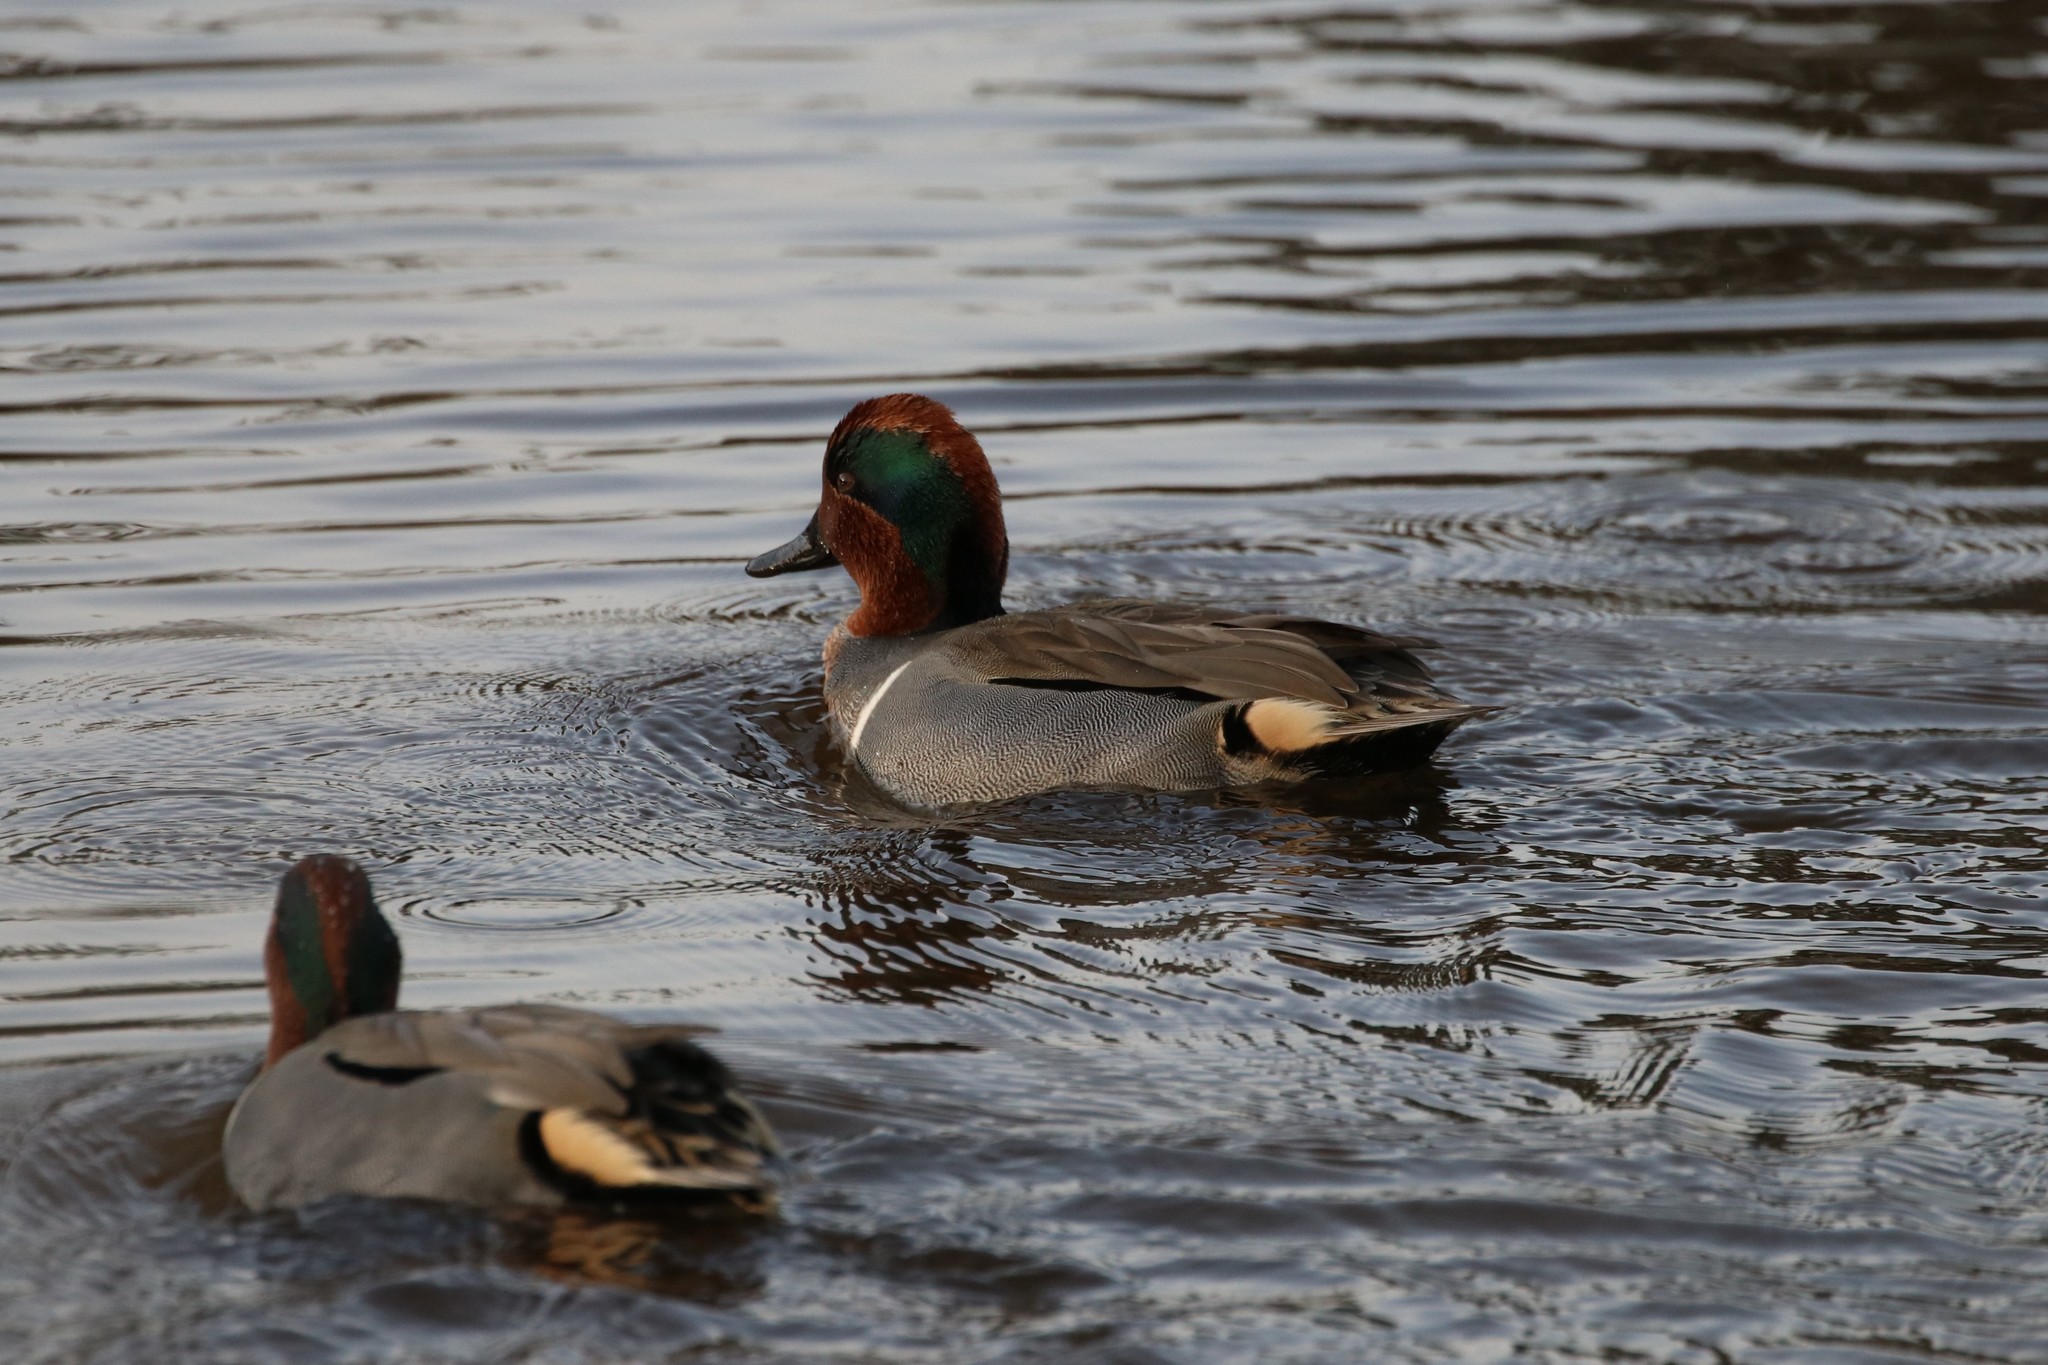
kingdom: Animalia
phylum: Chordata
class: Aves
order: Anseriformes
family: Anatidae
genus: Anas
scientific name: Anas crecca
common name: Eurasian teal
